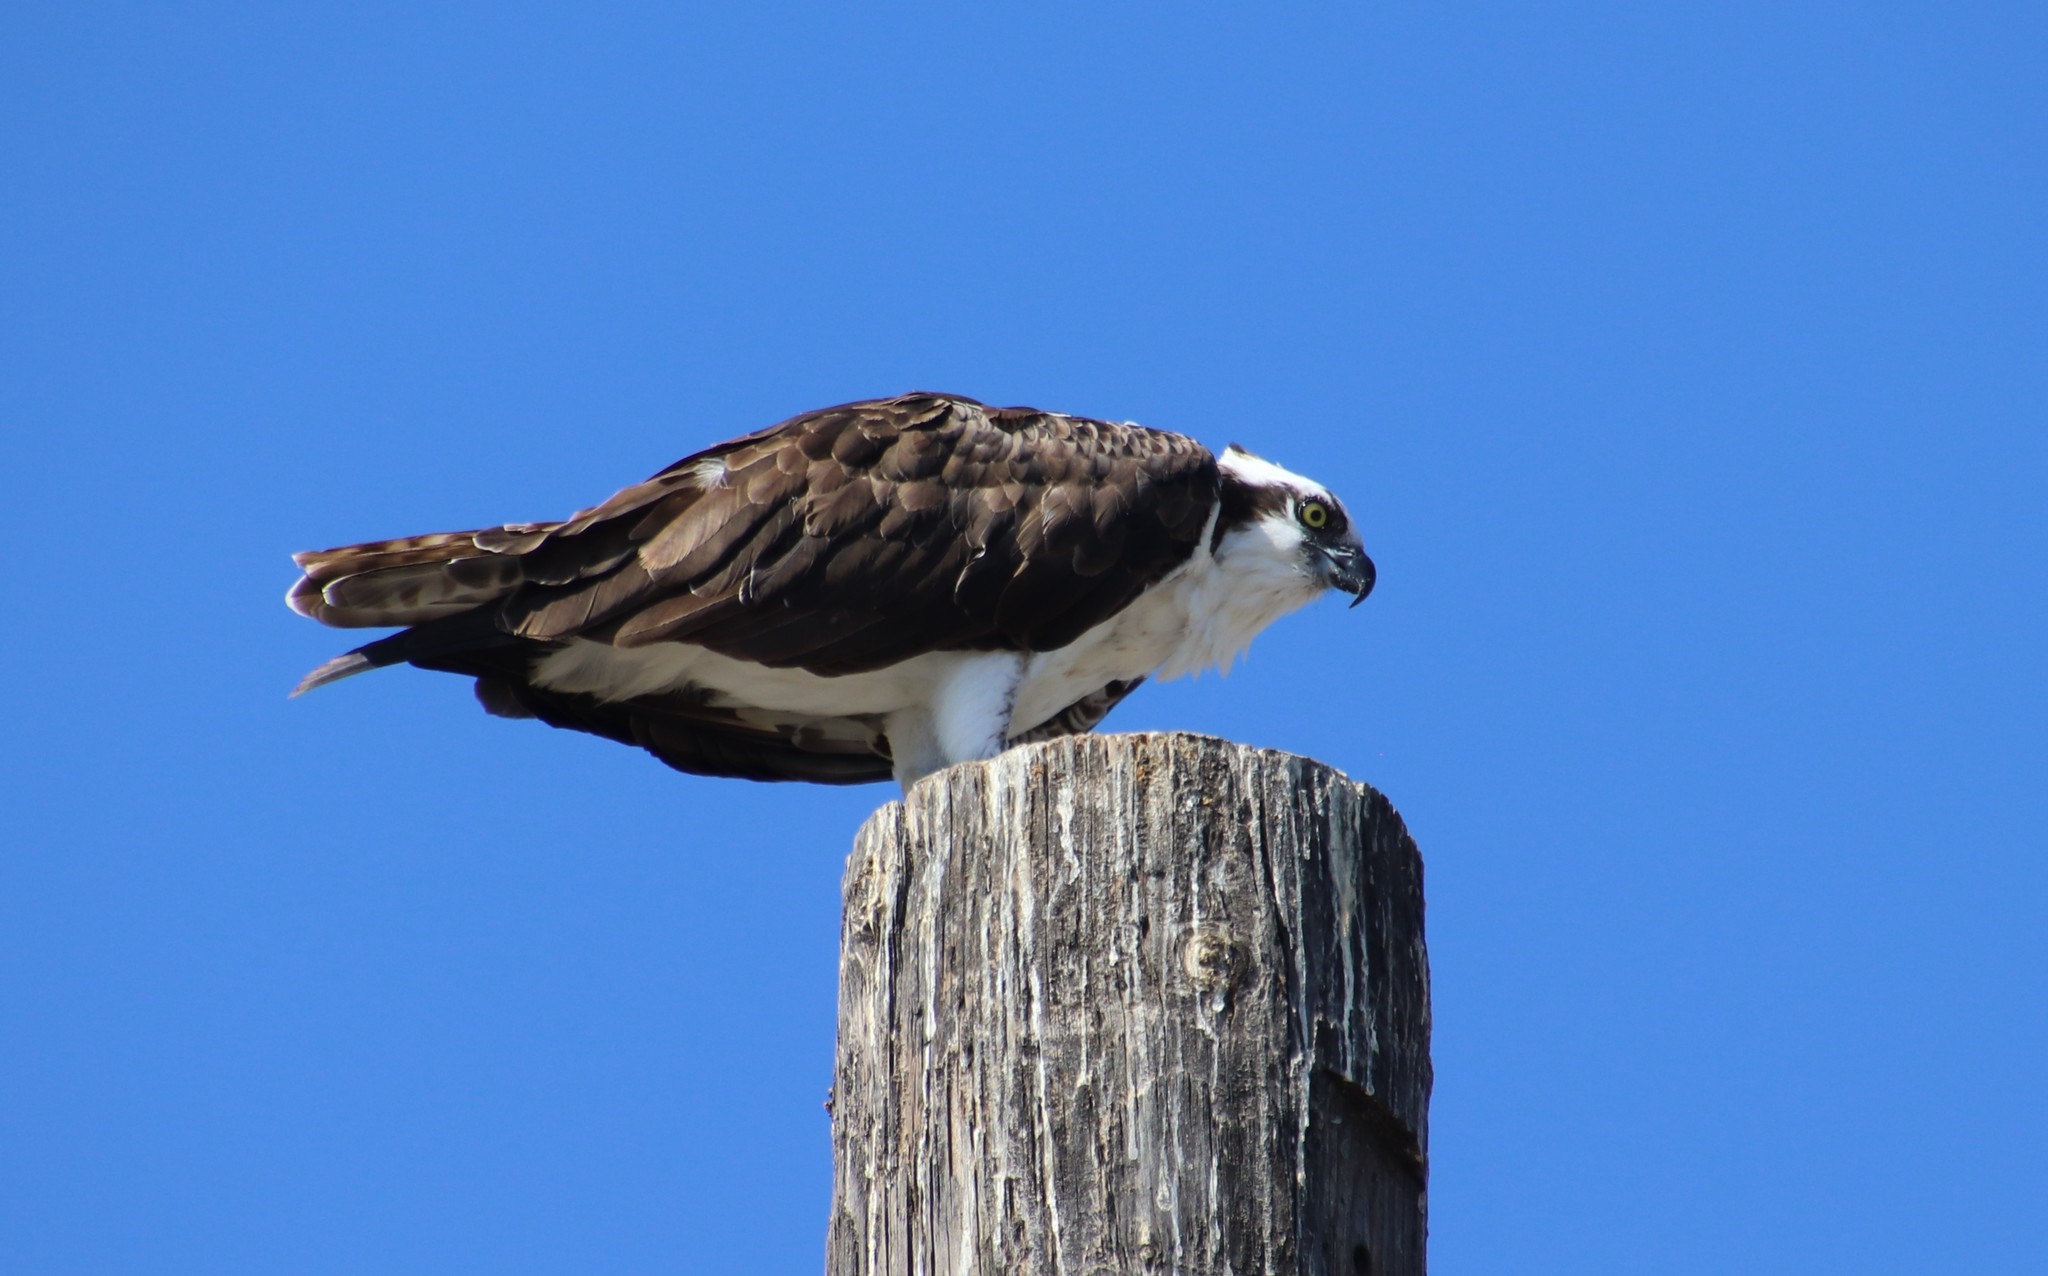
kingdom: Animalia
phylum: Chordata
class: Aves
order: Accipitriformes
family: Pandionidae
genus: Pandion
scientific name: Pandion haliaetus
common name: Osprey
